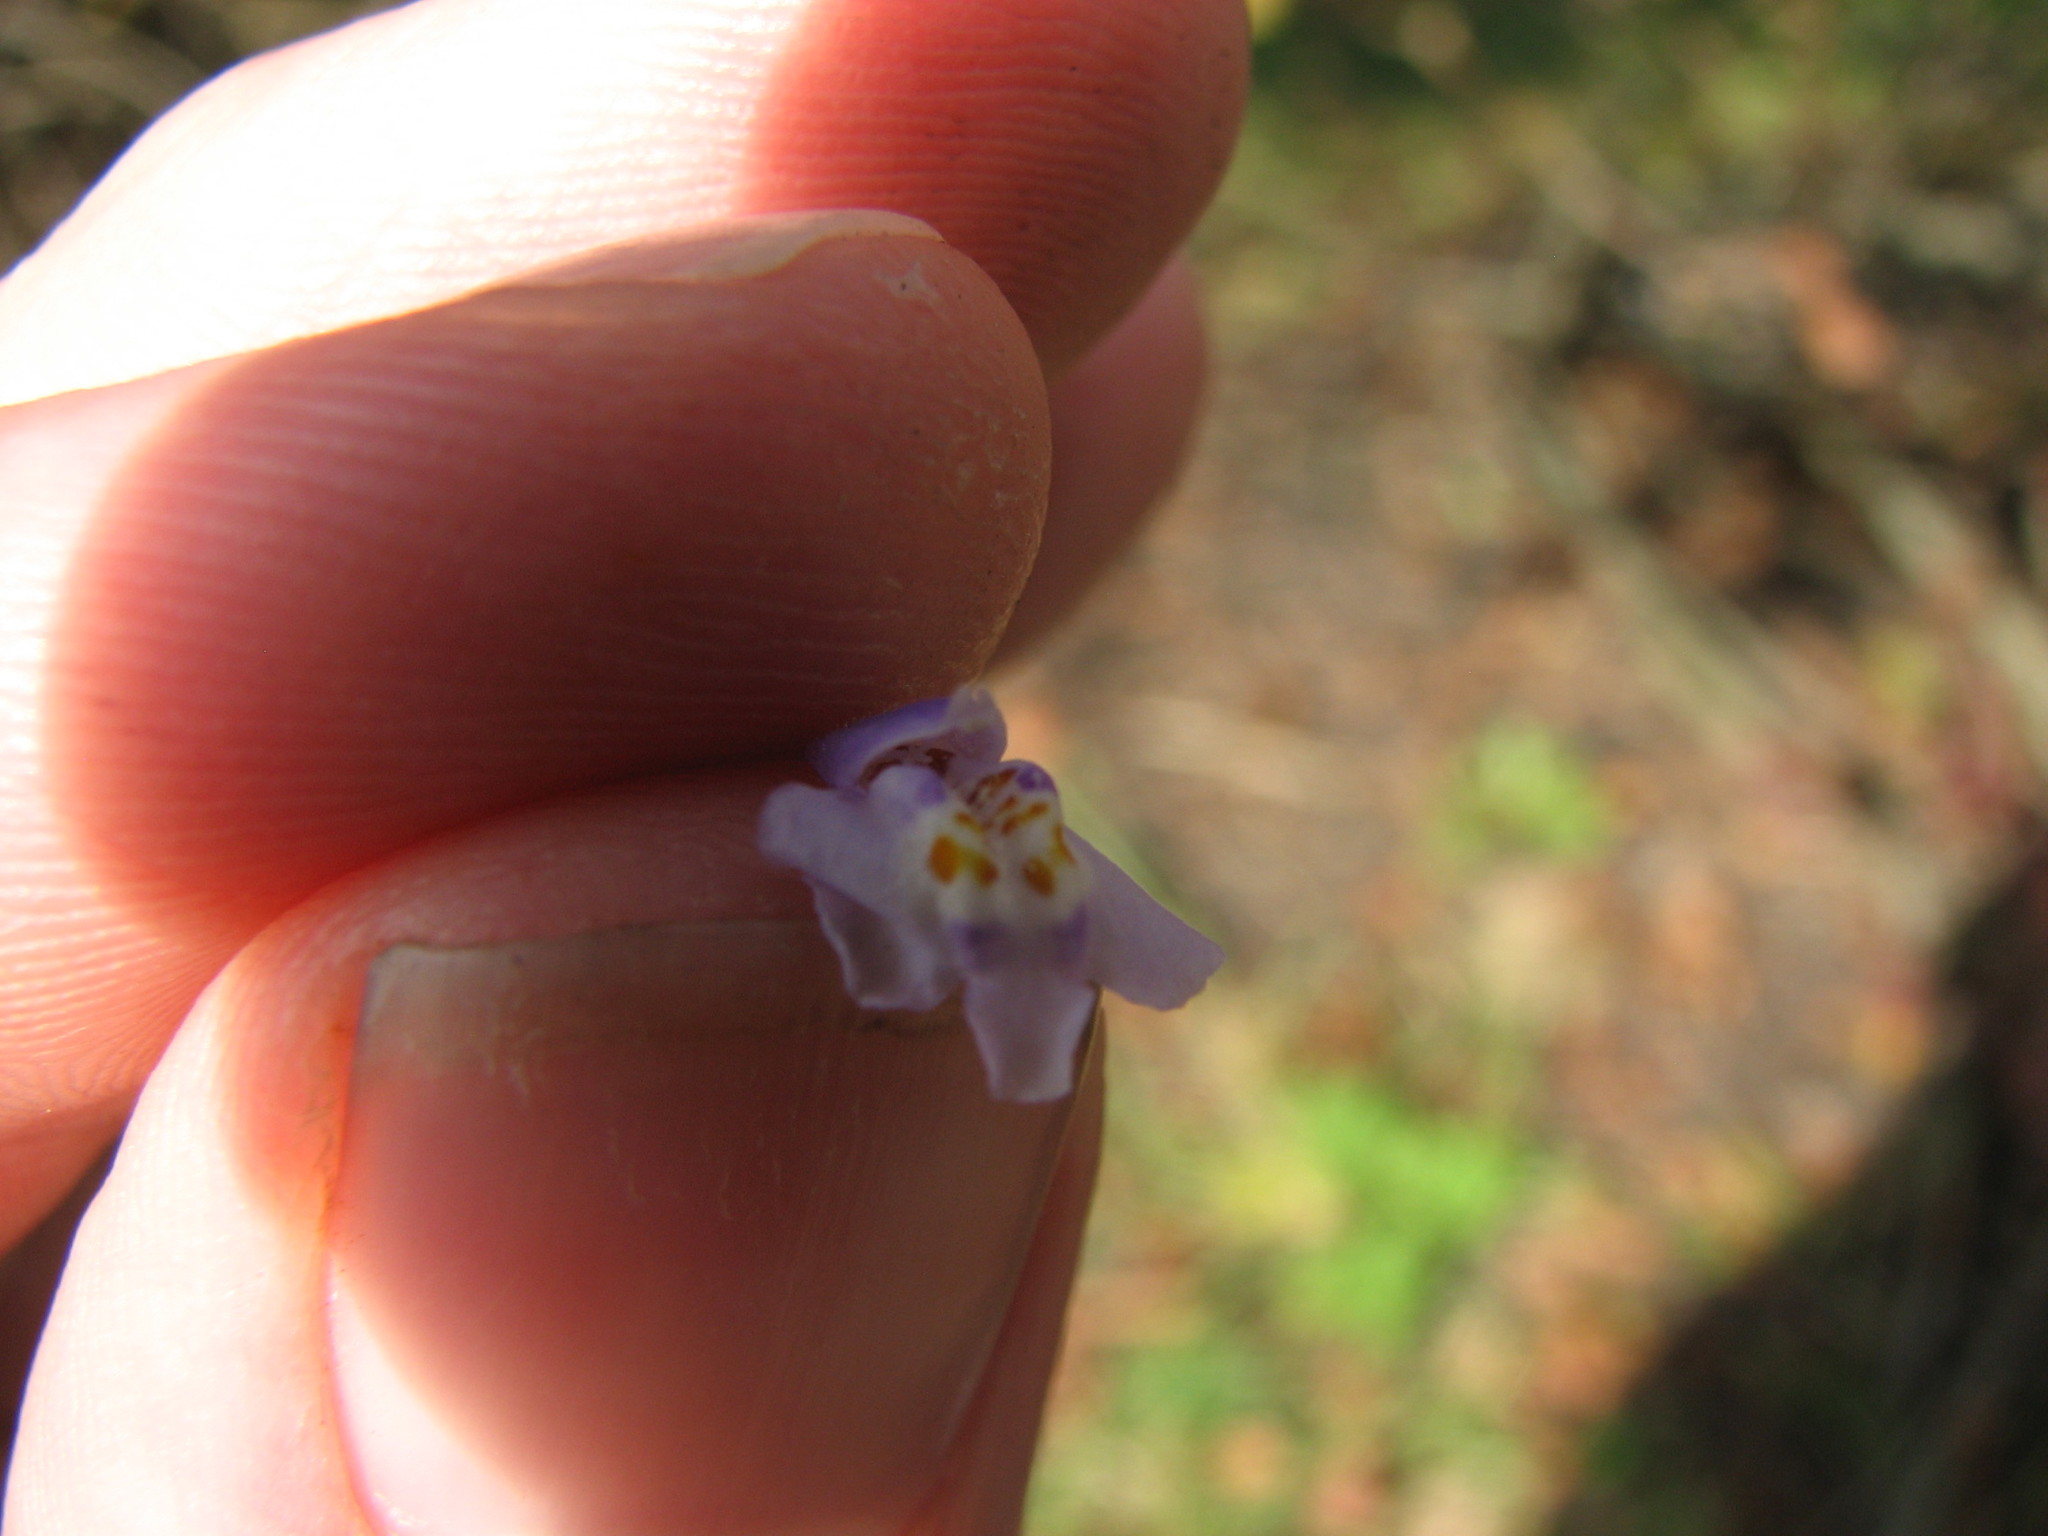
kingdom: Plantae
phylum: Tracheophyta
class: Magnoliopsida
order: Lamiales
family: Mazaceae
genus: Mazus
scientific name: Mazus pumilus
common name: Japanese mazus
